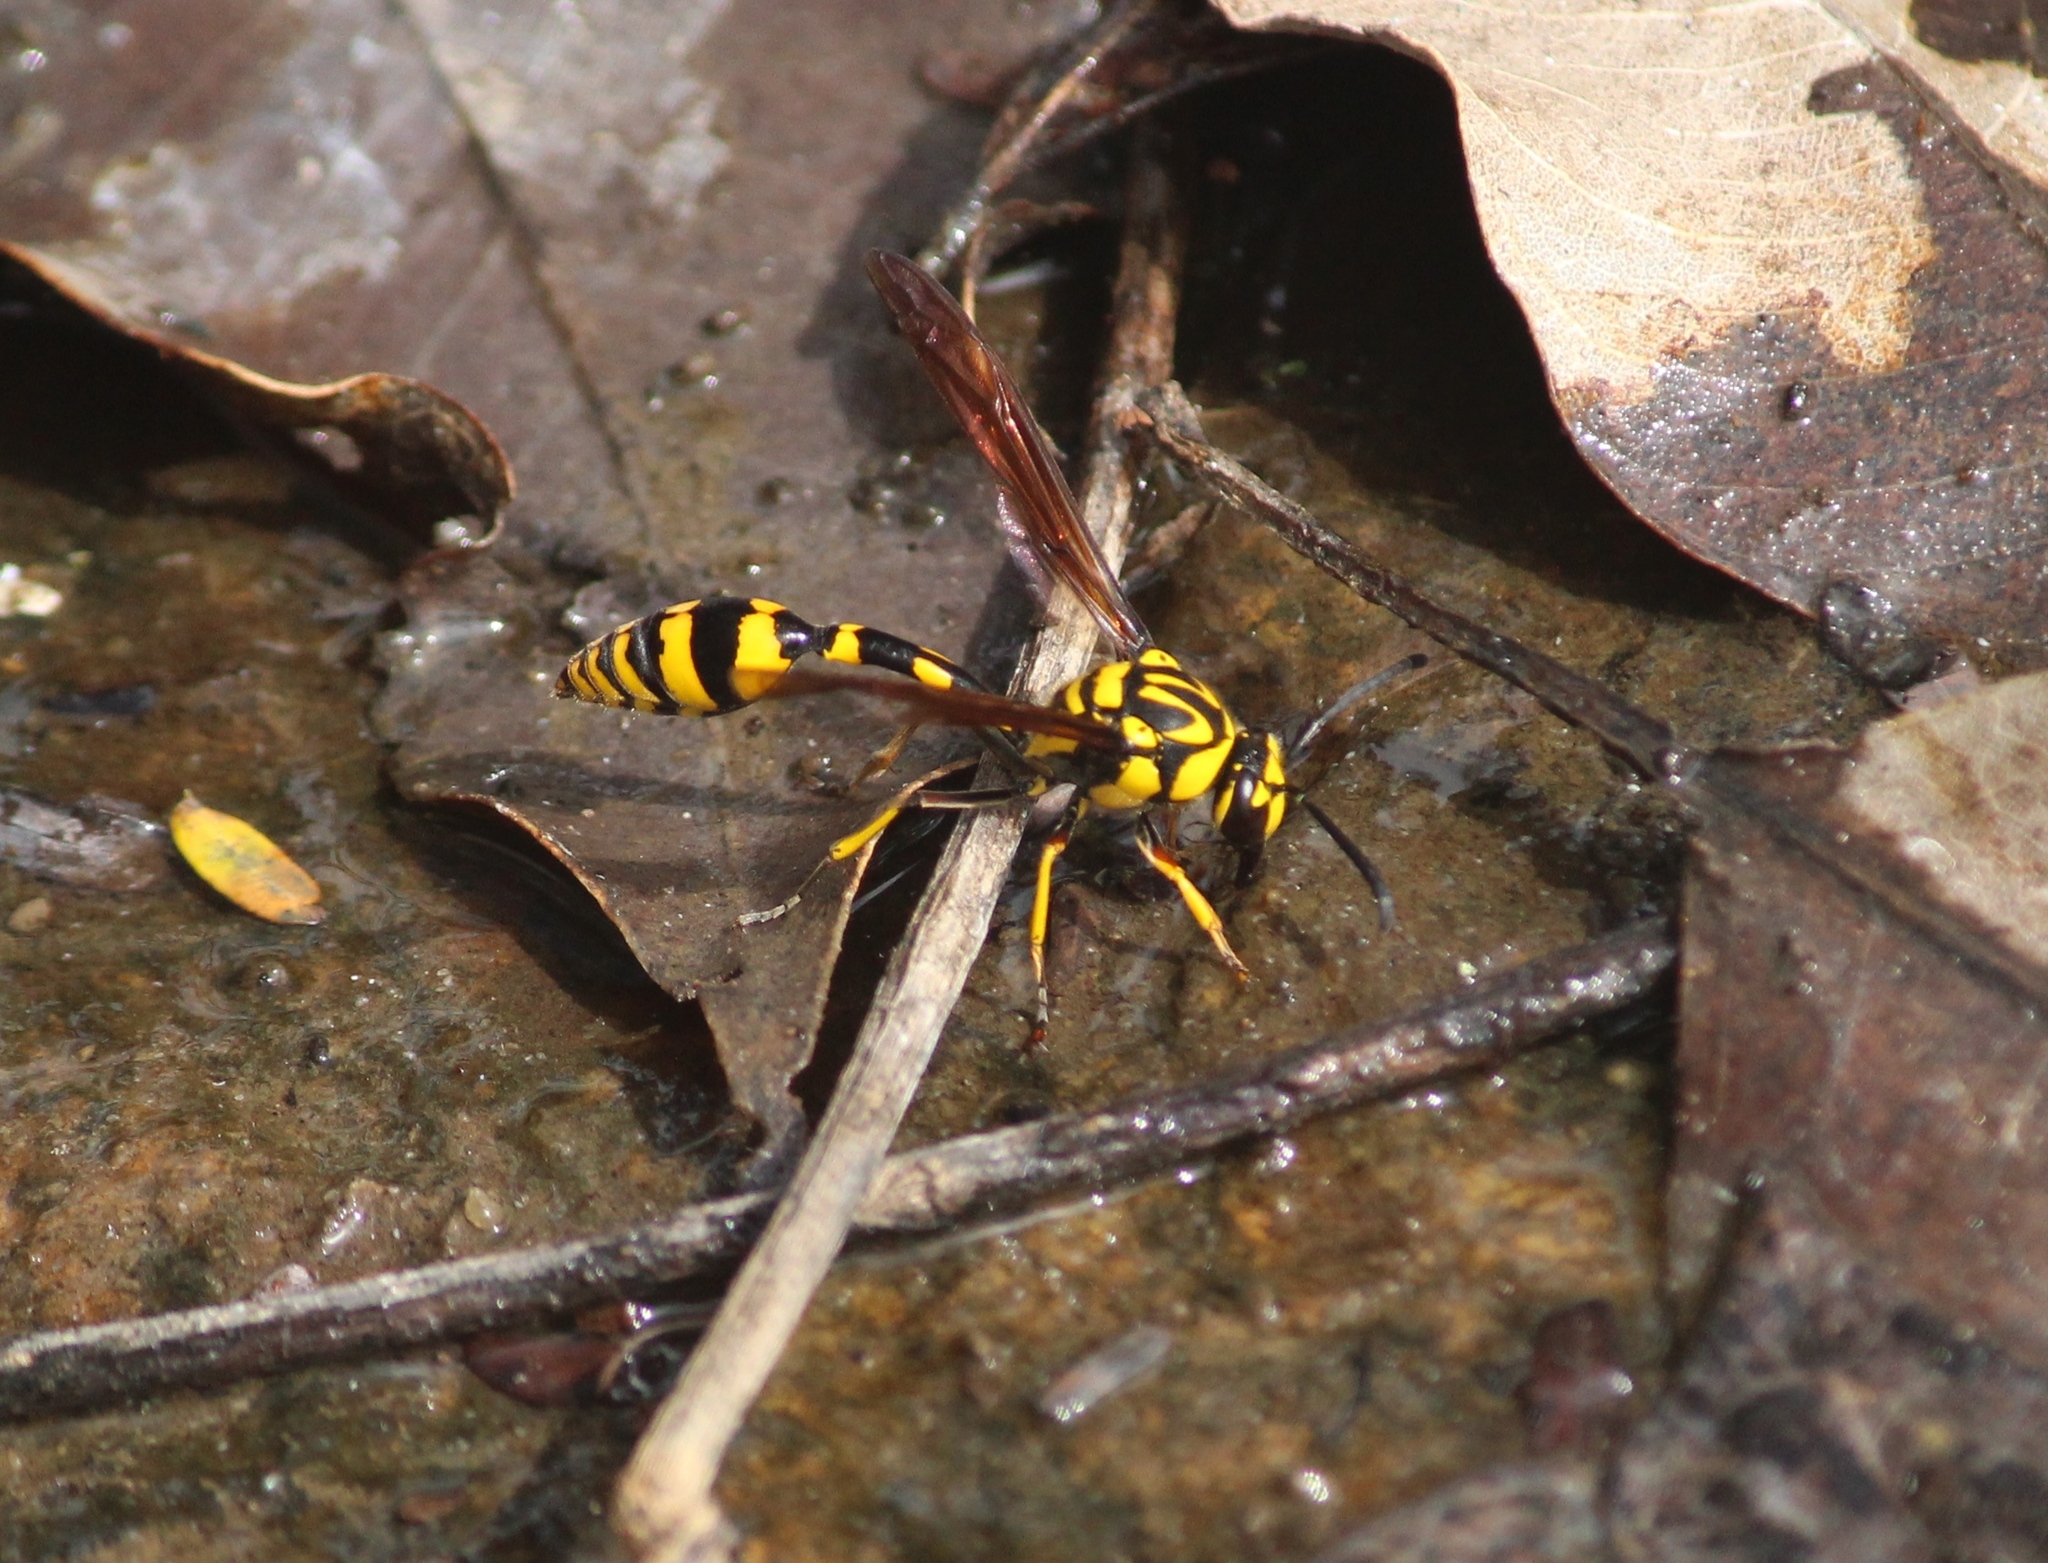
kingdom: Animalia
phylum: Arthropoda
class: Insecta
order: Hymenoptera
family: Eumenidae
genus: Phimenes
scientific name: Phimenes flavopictus
